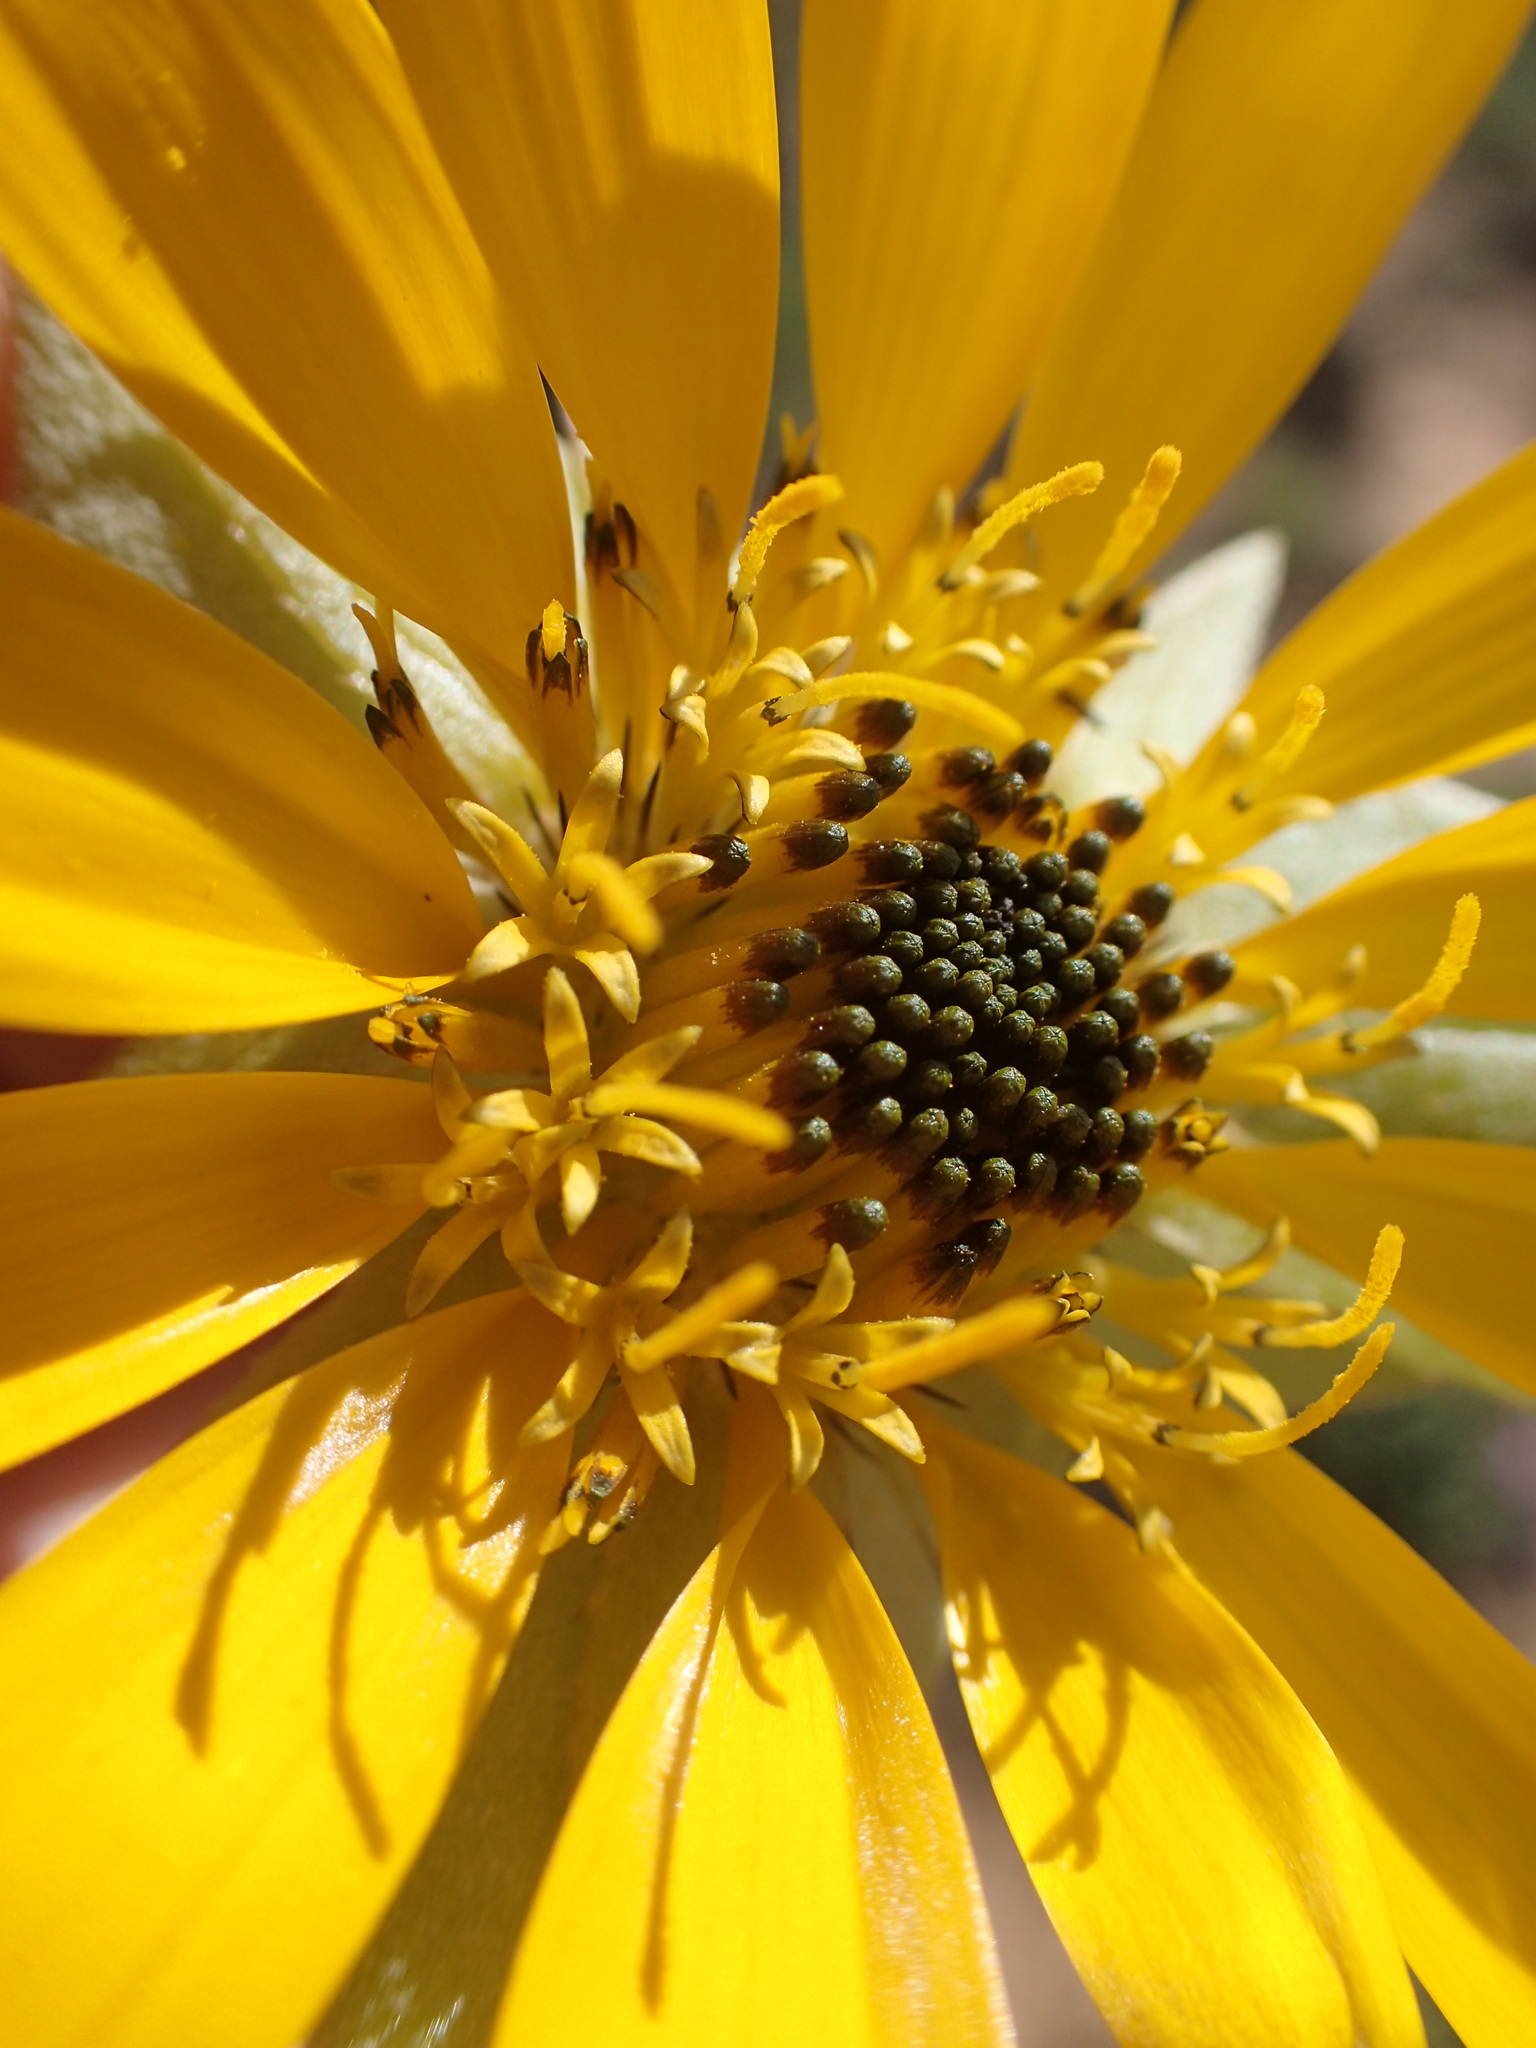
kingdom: Plantae
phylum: Tracheophyta
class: Magnoliopsida
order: Asterales
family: Asteraceae
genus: Didelta
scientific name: Didelta carnosa
